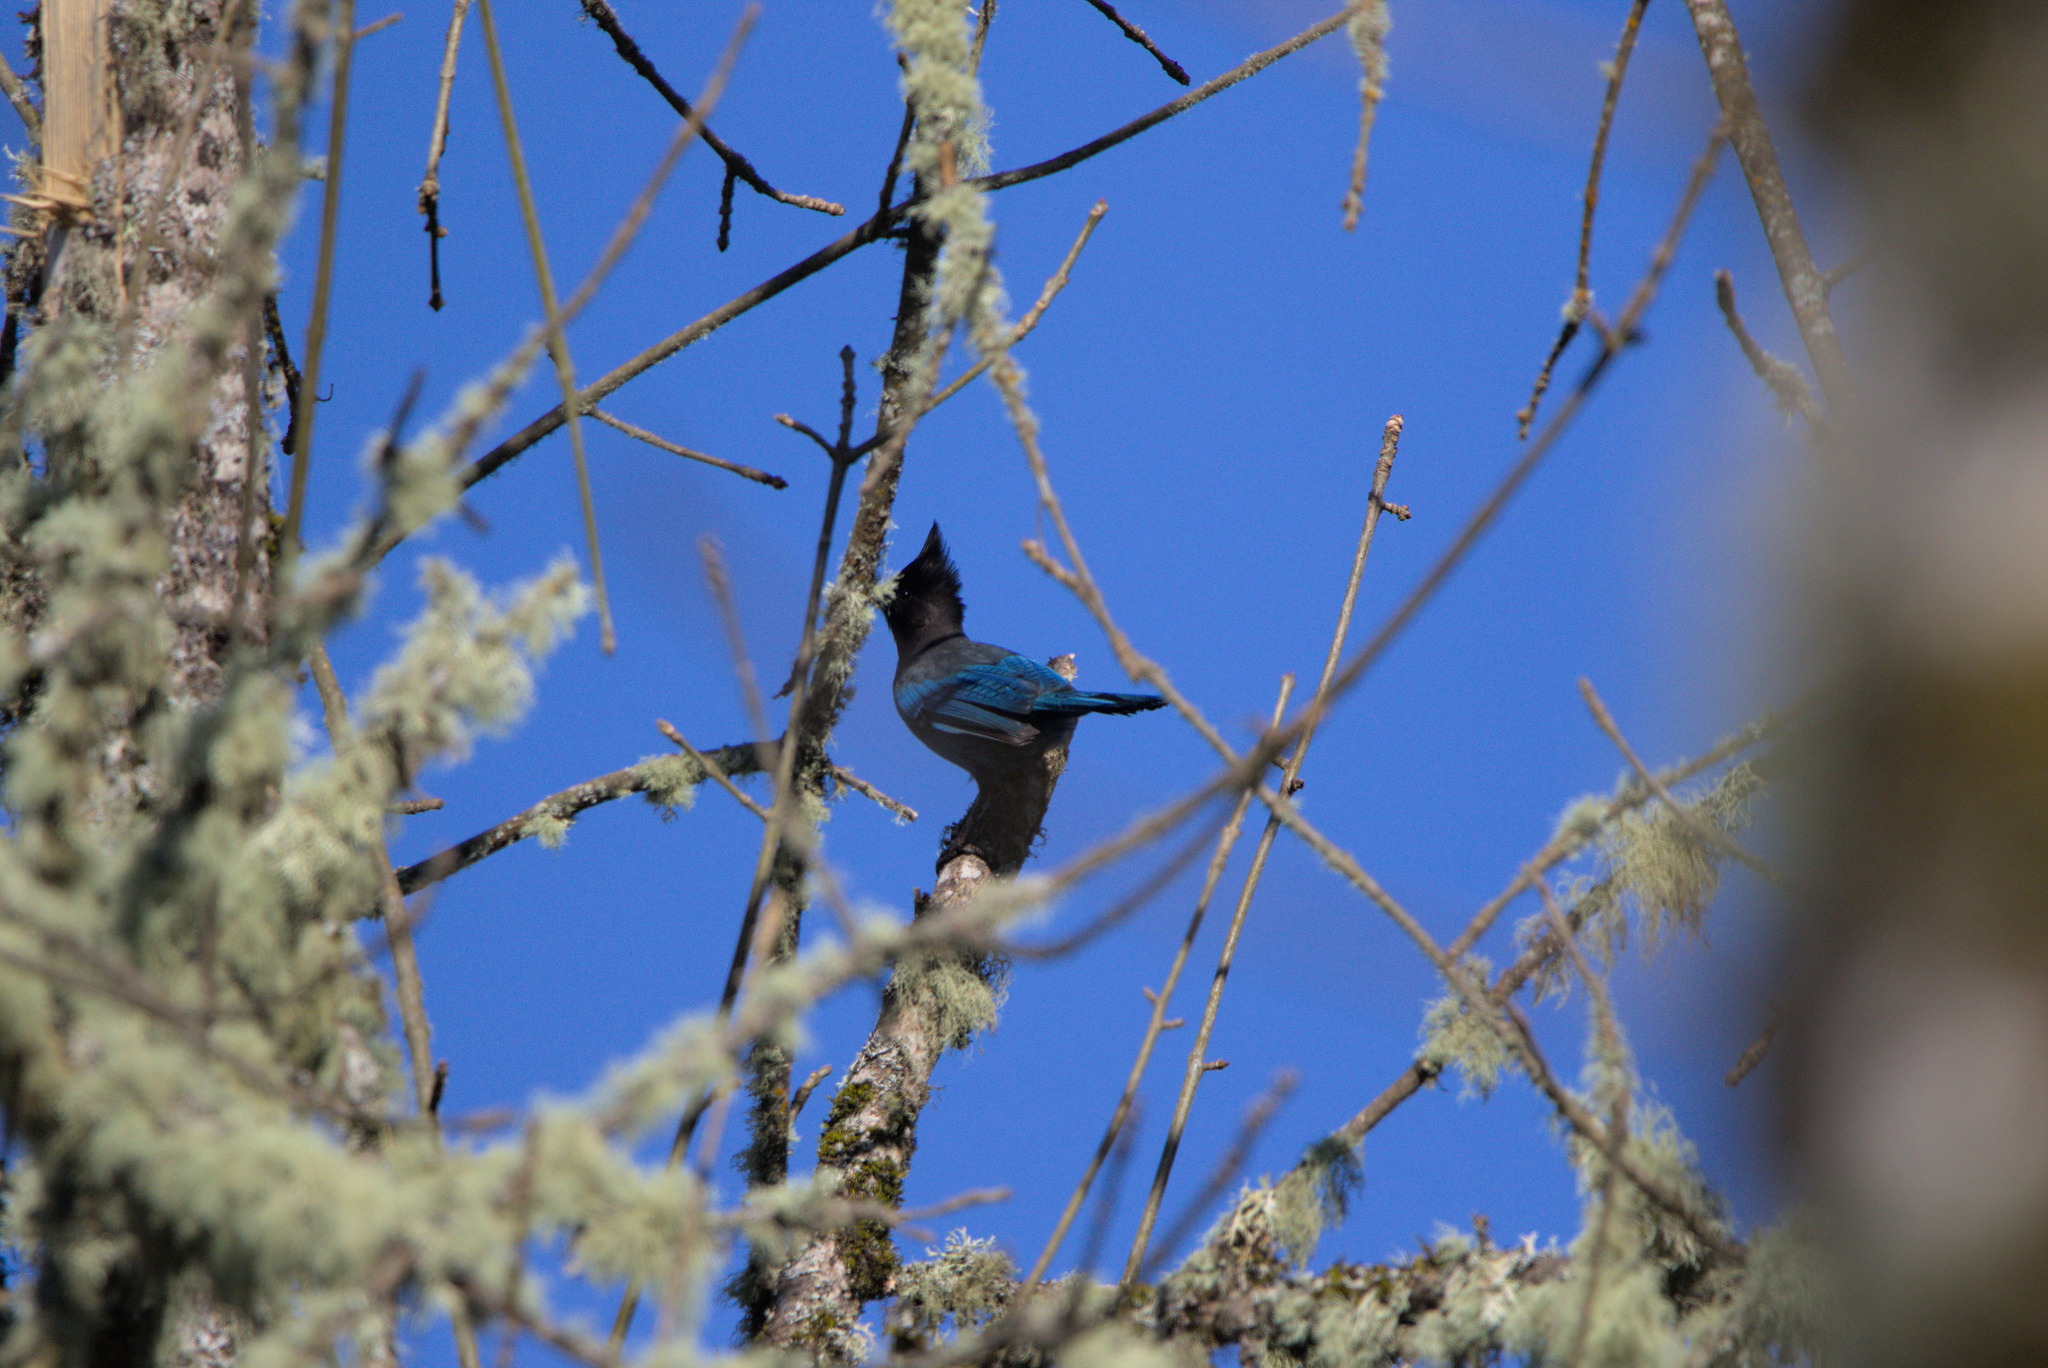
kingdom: Animalia
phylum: Chordata
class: Aves
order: Passeriformes
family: Corvidae
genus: Cyanocitta
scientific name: Cyanocitta stelleri
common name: Steller's jay
